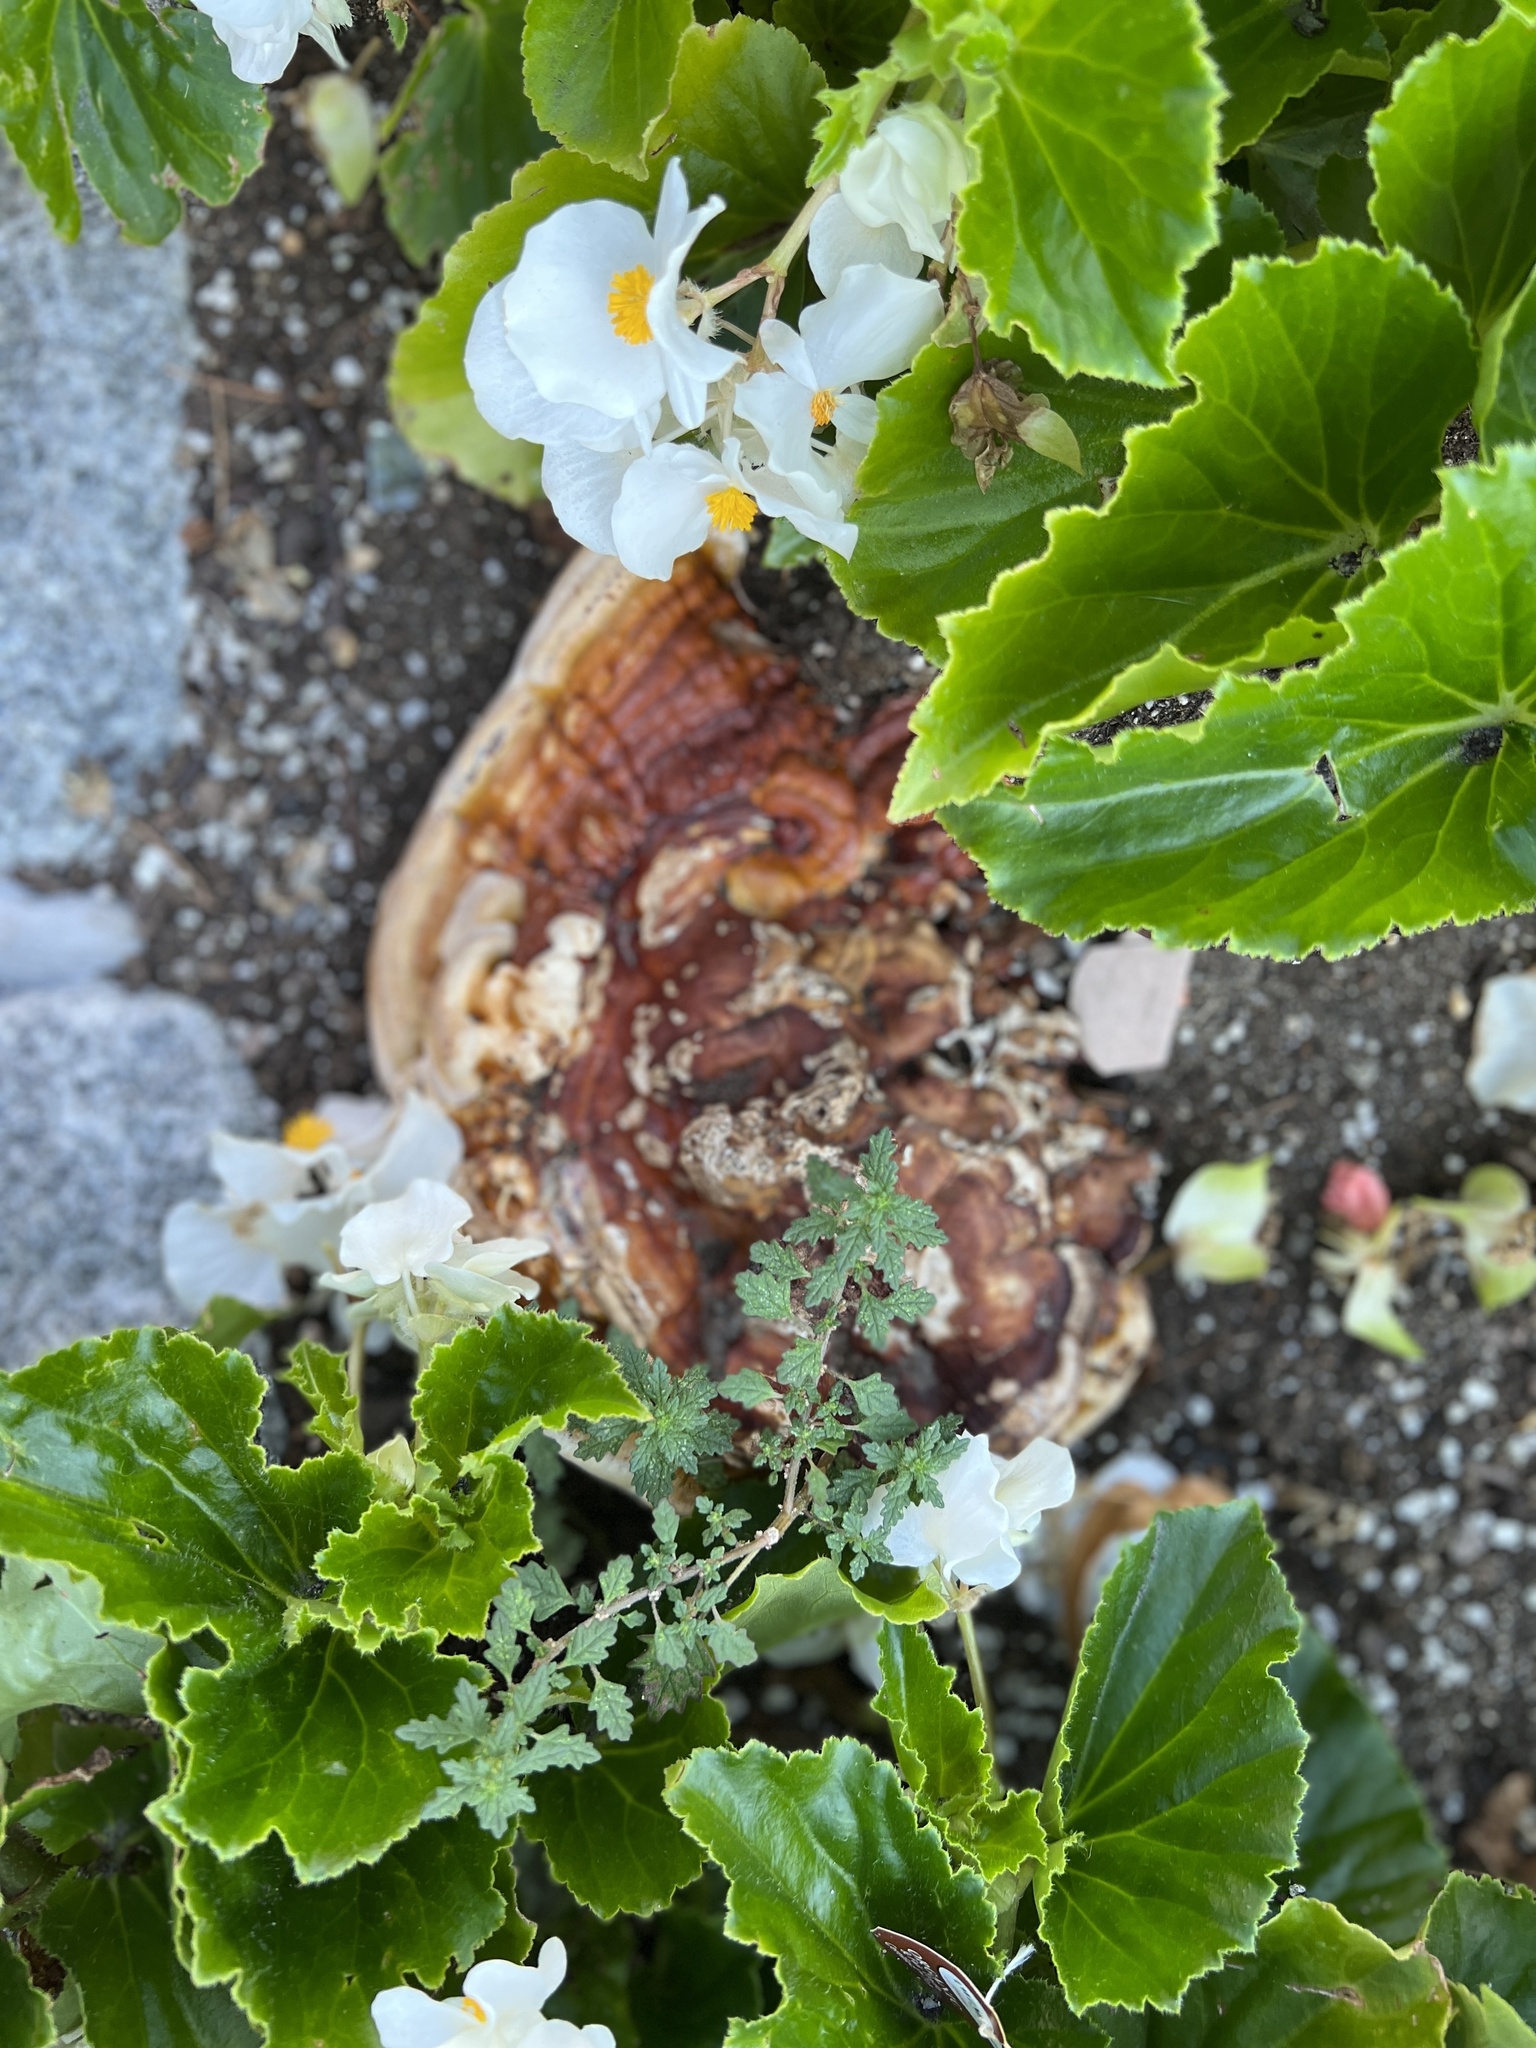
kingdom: Fungi
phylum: Basidiomycota
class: Agaricomycetes
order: Polyporales
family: Polyporaceae
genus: Ganoderma
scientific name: Ganoderma resinaceum
